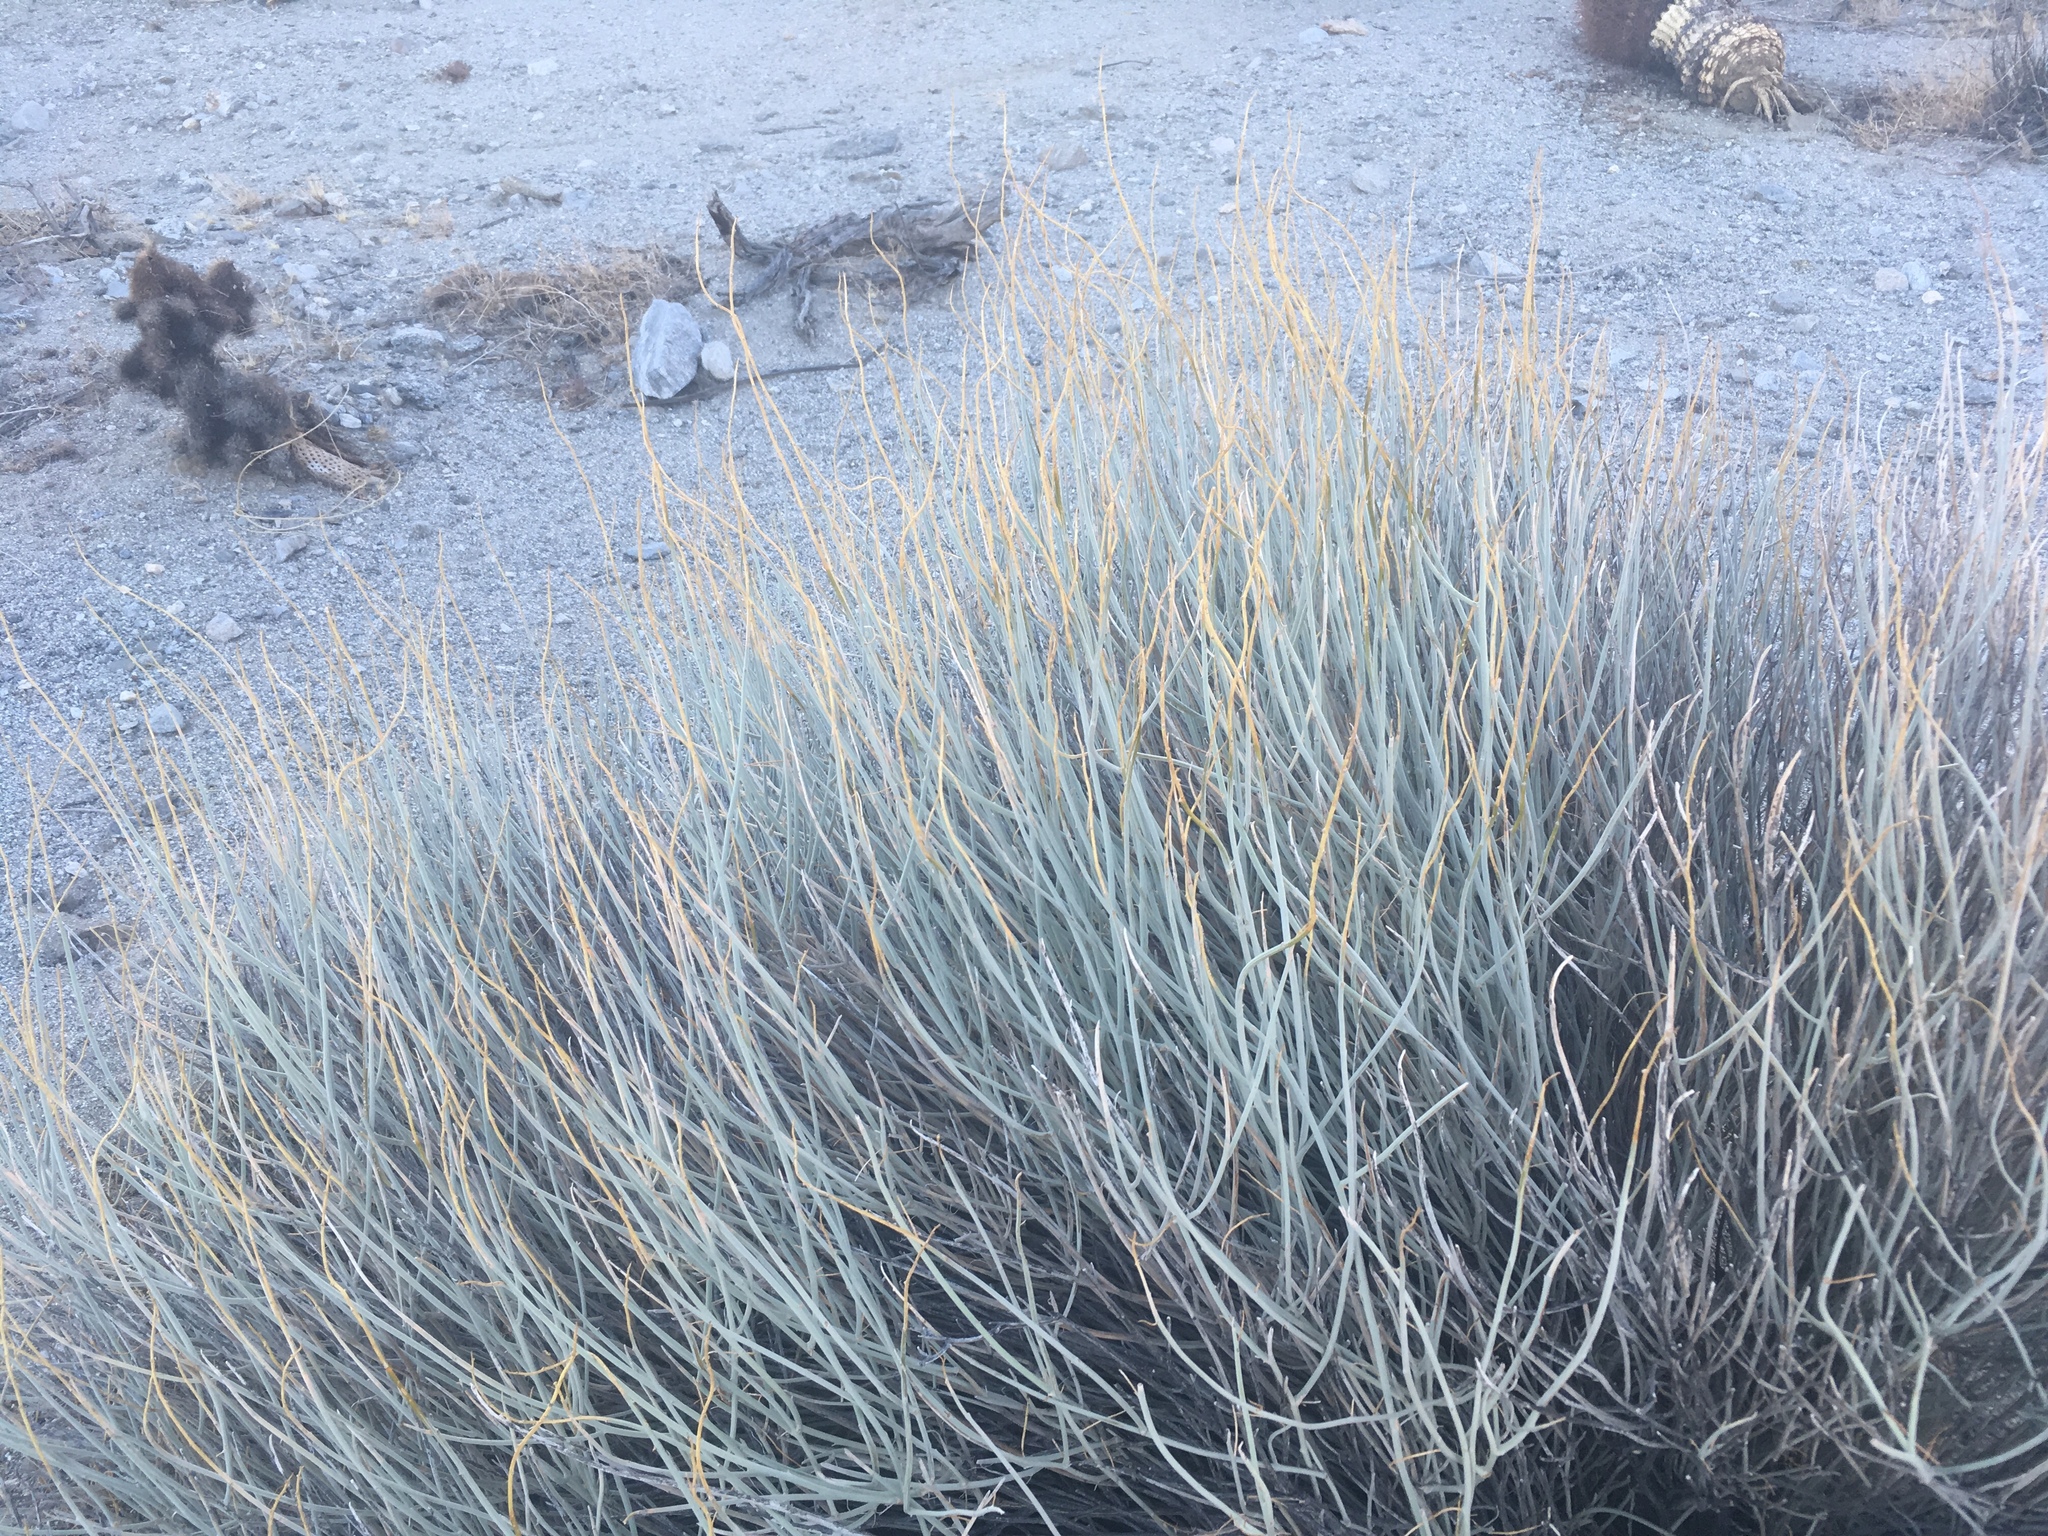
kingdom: Plantae
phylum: Tracheophyta
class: Magnoliopsida
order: Fabales
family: Fabaceae
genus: Senna
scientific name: Senna armata
